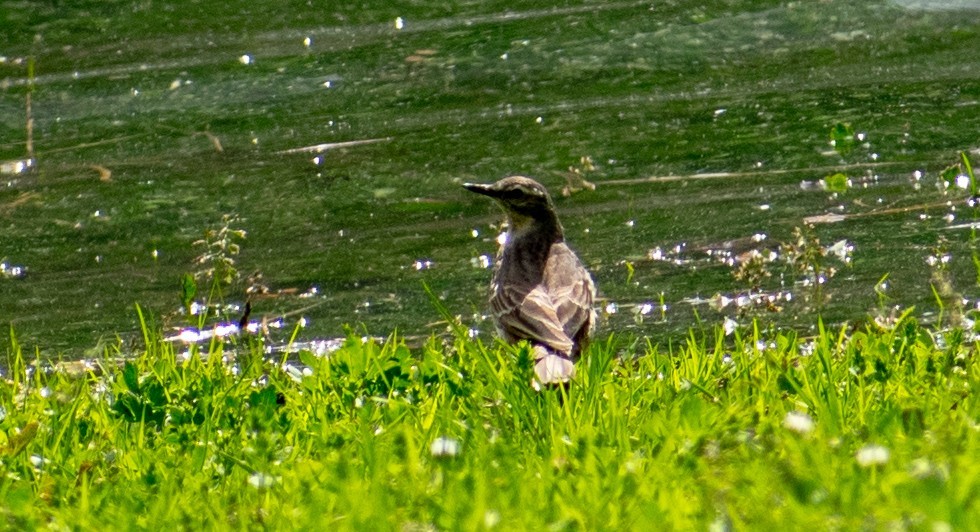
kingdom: Animalia
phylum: Chordata
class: Aves
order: Passeriformes
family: Motacillidae
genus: Anthus
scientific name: Anthus spinoletta
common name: Water pipit
